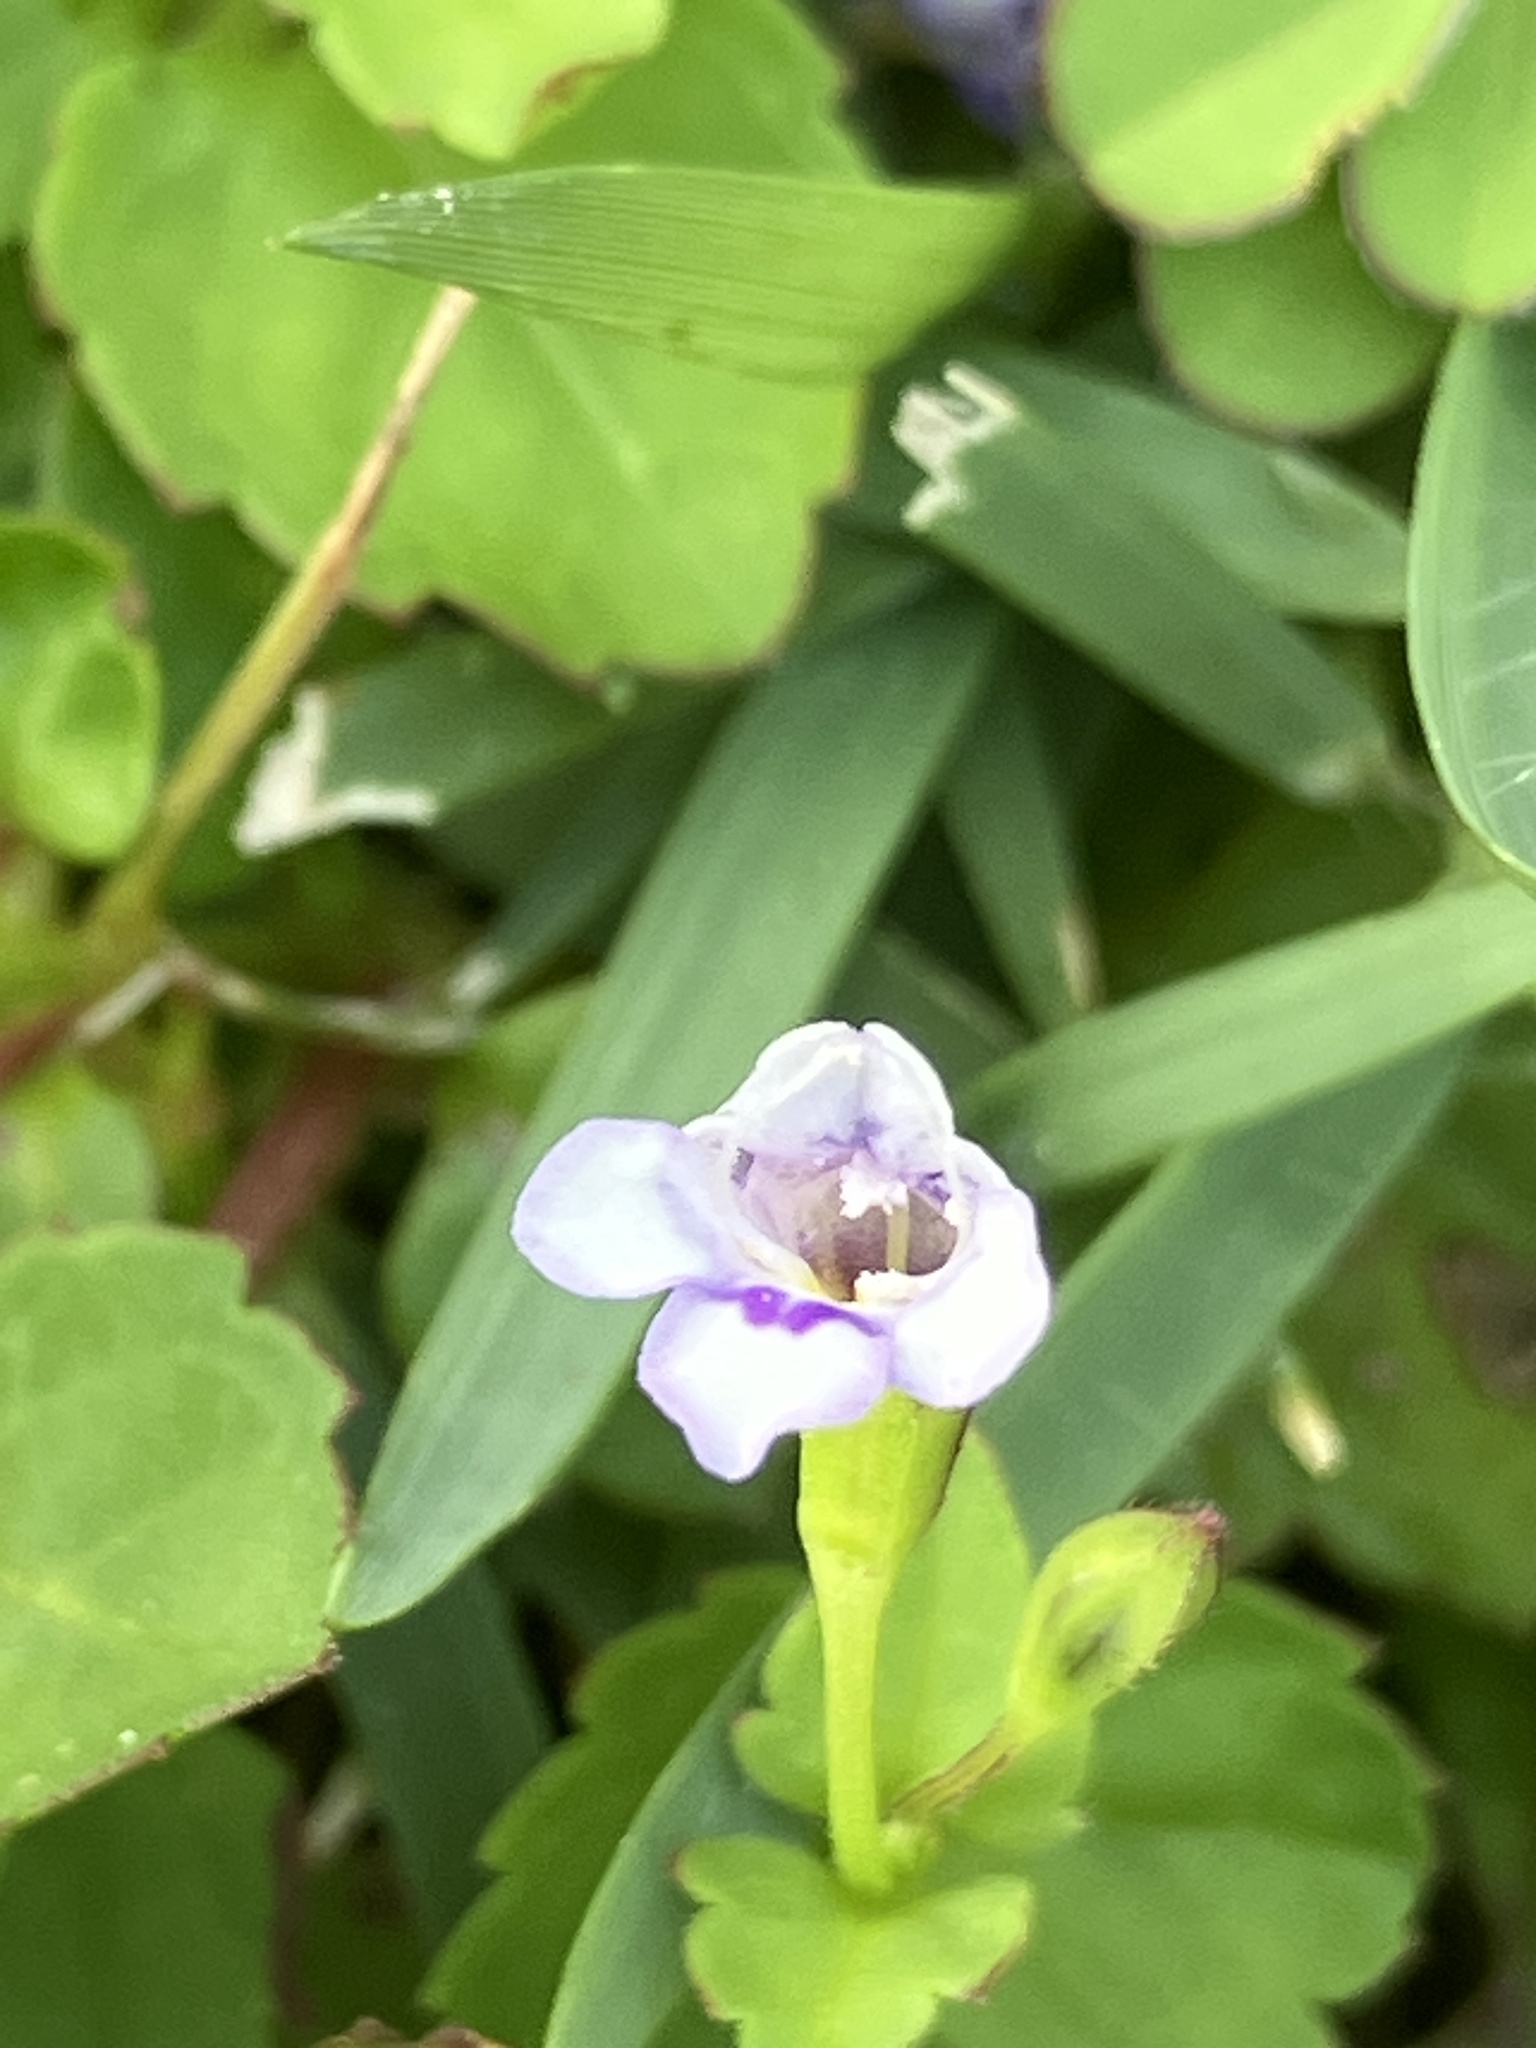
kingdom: Plantae
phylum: Tracheophyta
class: Magnoliopsida
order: Lamiales
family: Linderniaceae
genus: Torenia
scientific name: Torenia crustacea
